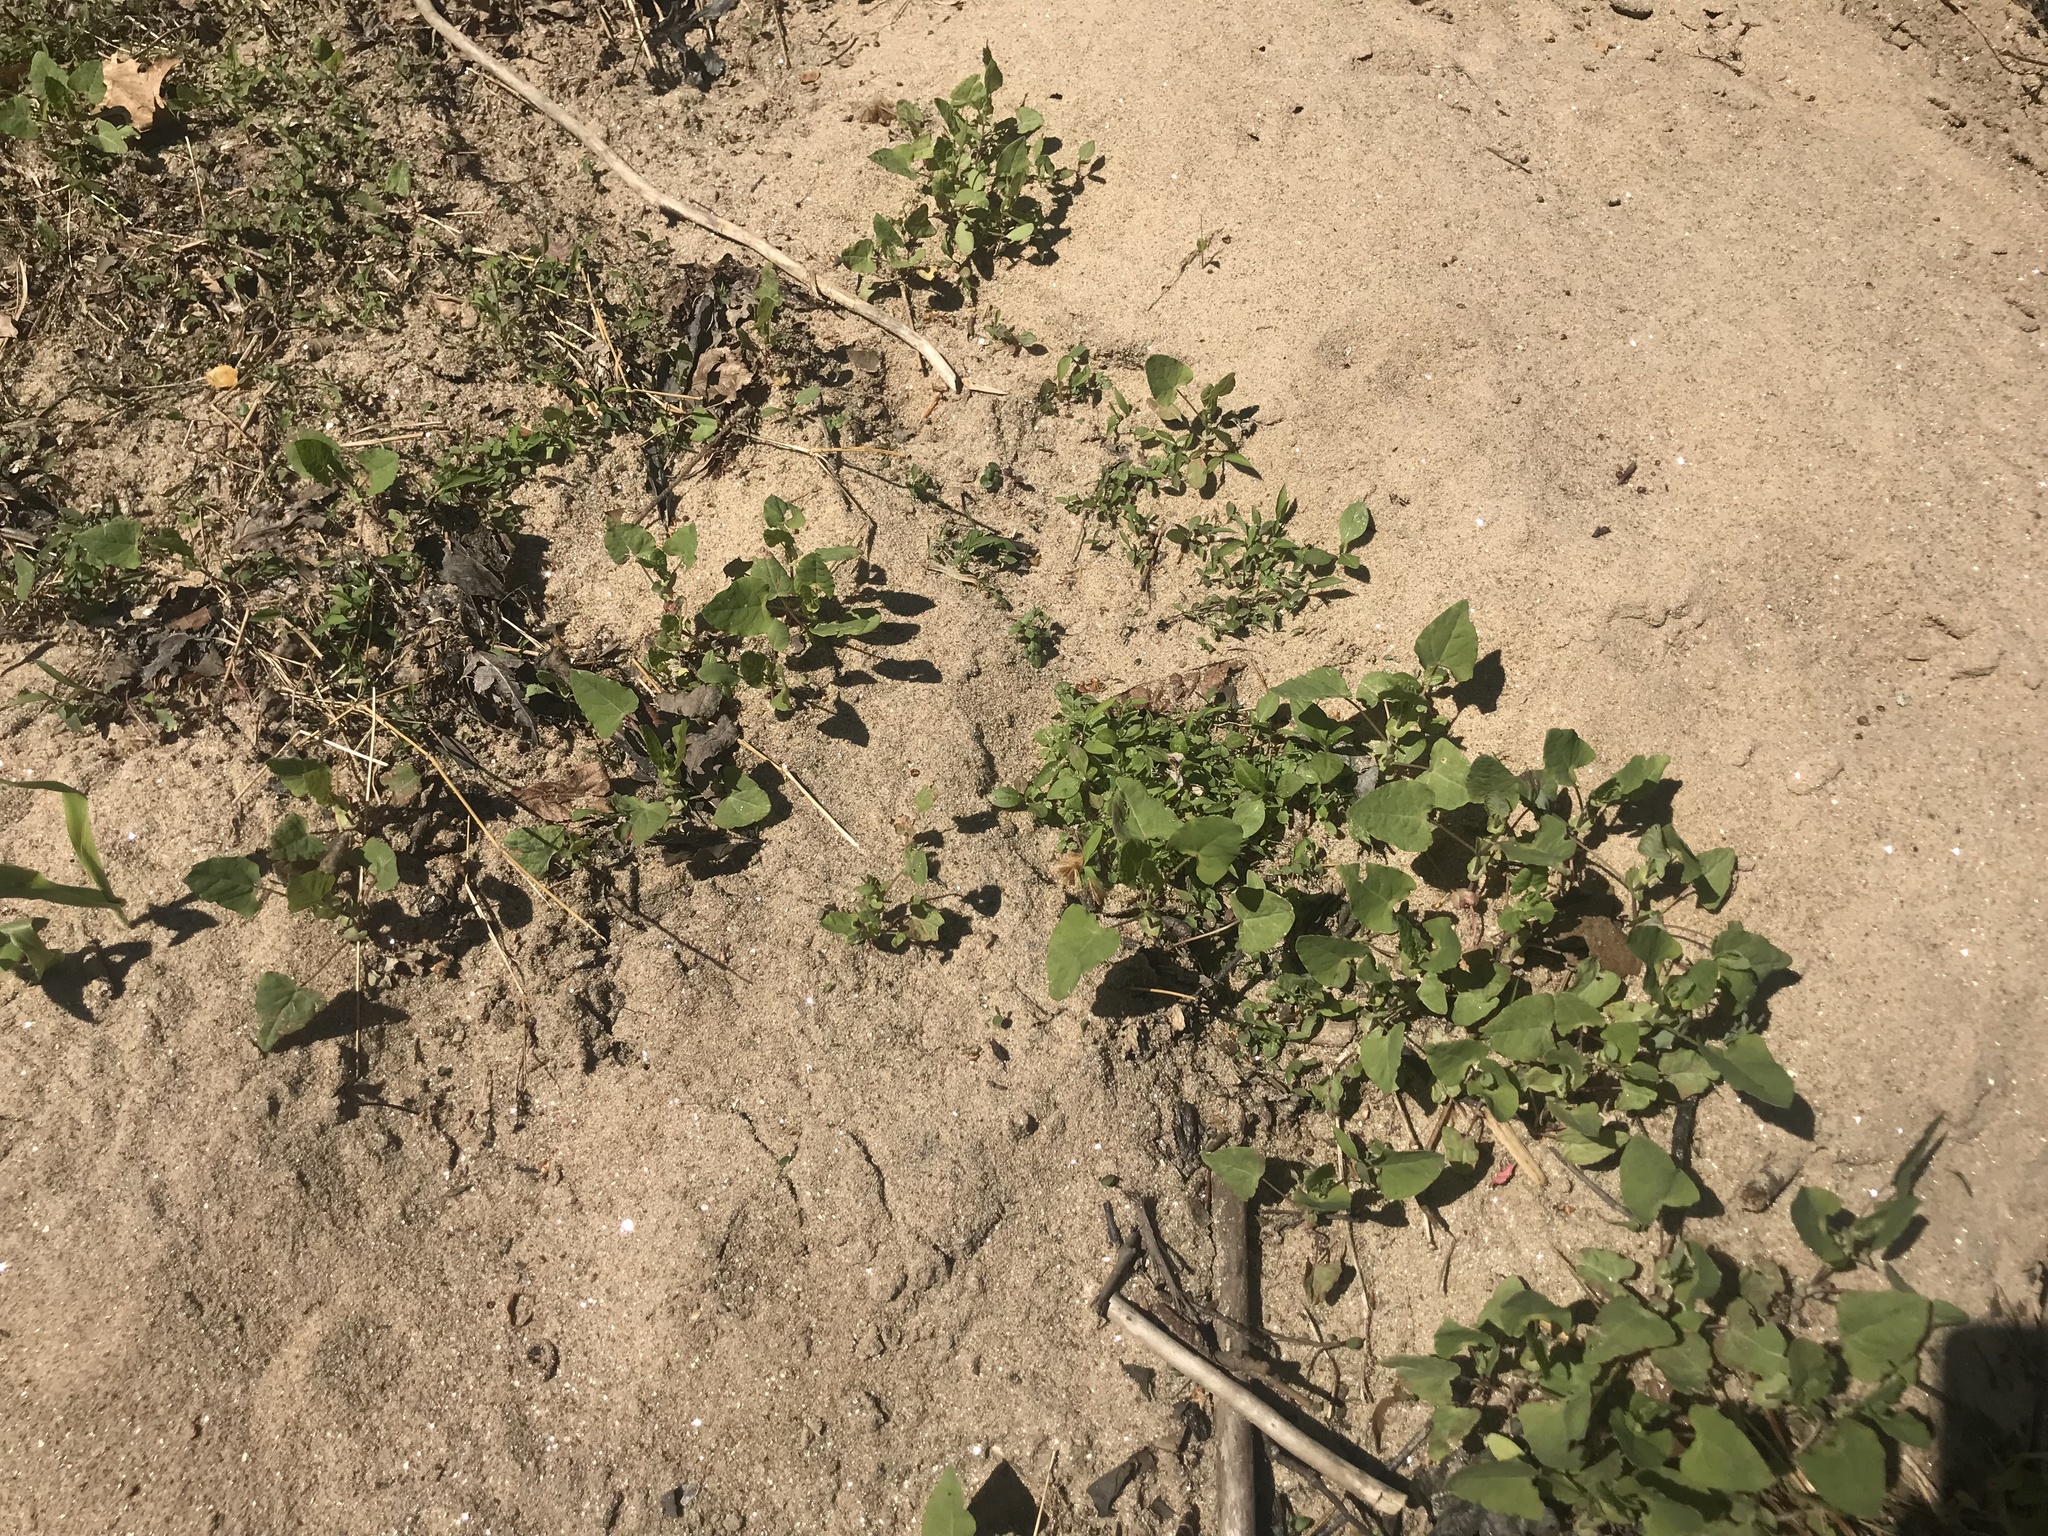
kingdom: Plantae
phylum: Tracheophyta
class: Magnoliopsida
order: Caryophyllales
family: Polygonaceae
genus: Persicaria
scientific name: Persicaria perfoliata
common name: Asiatic tearthumb
